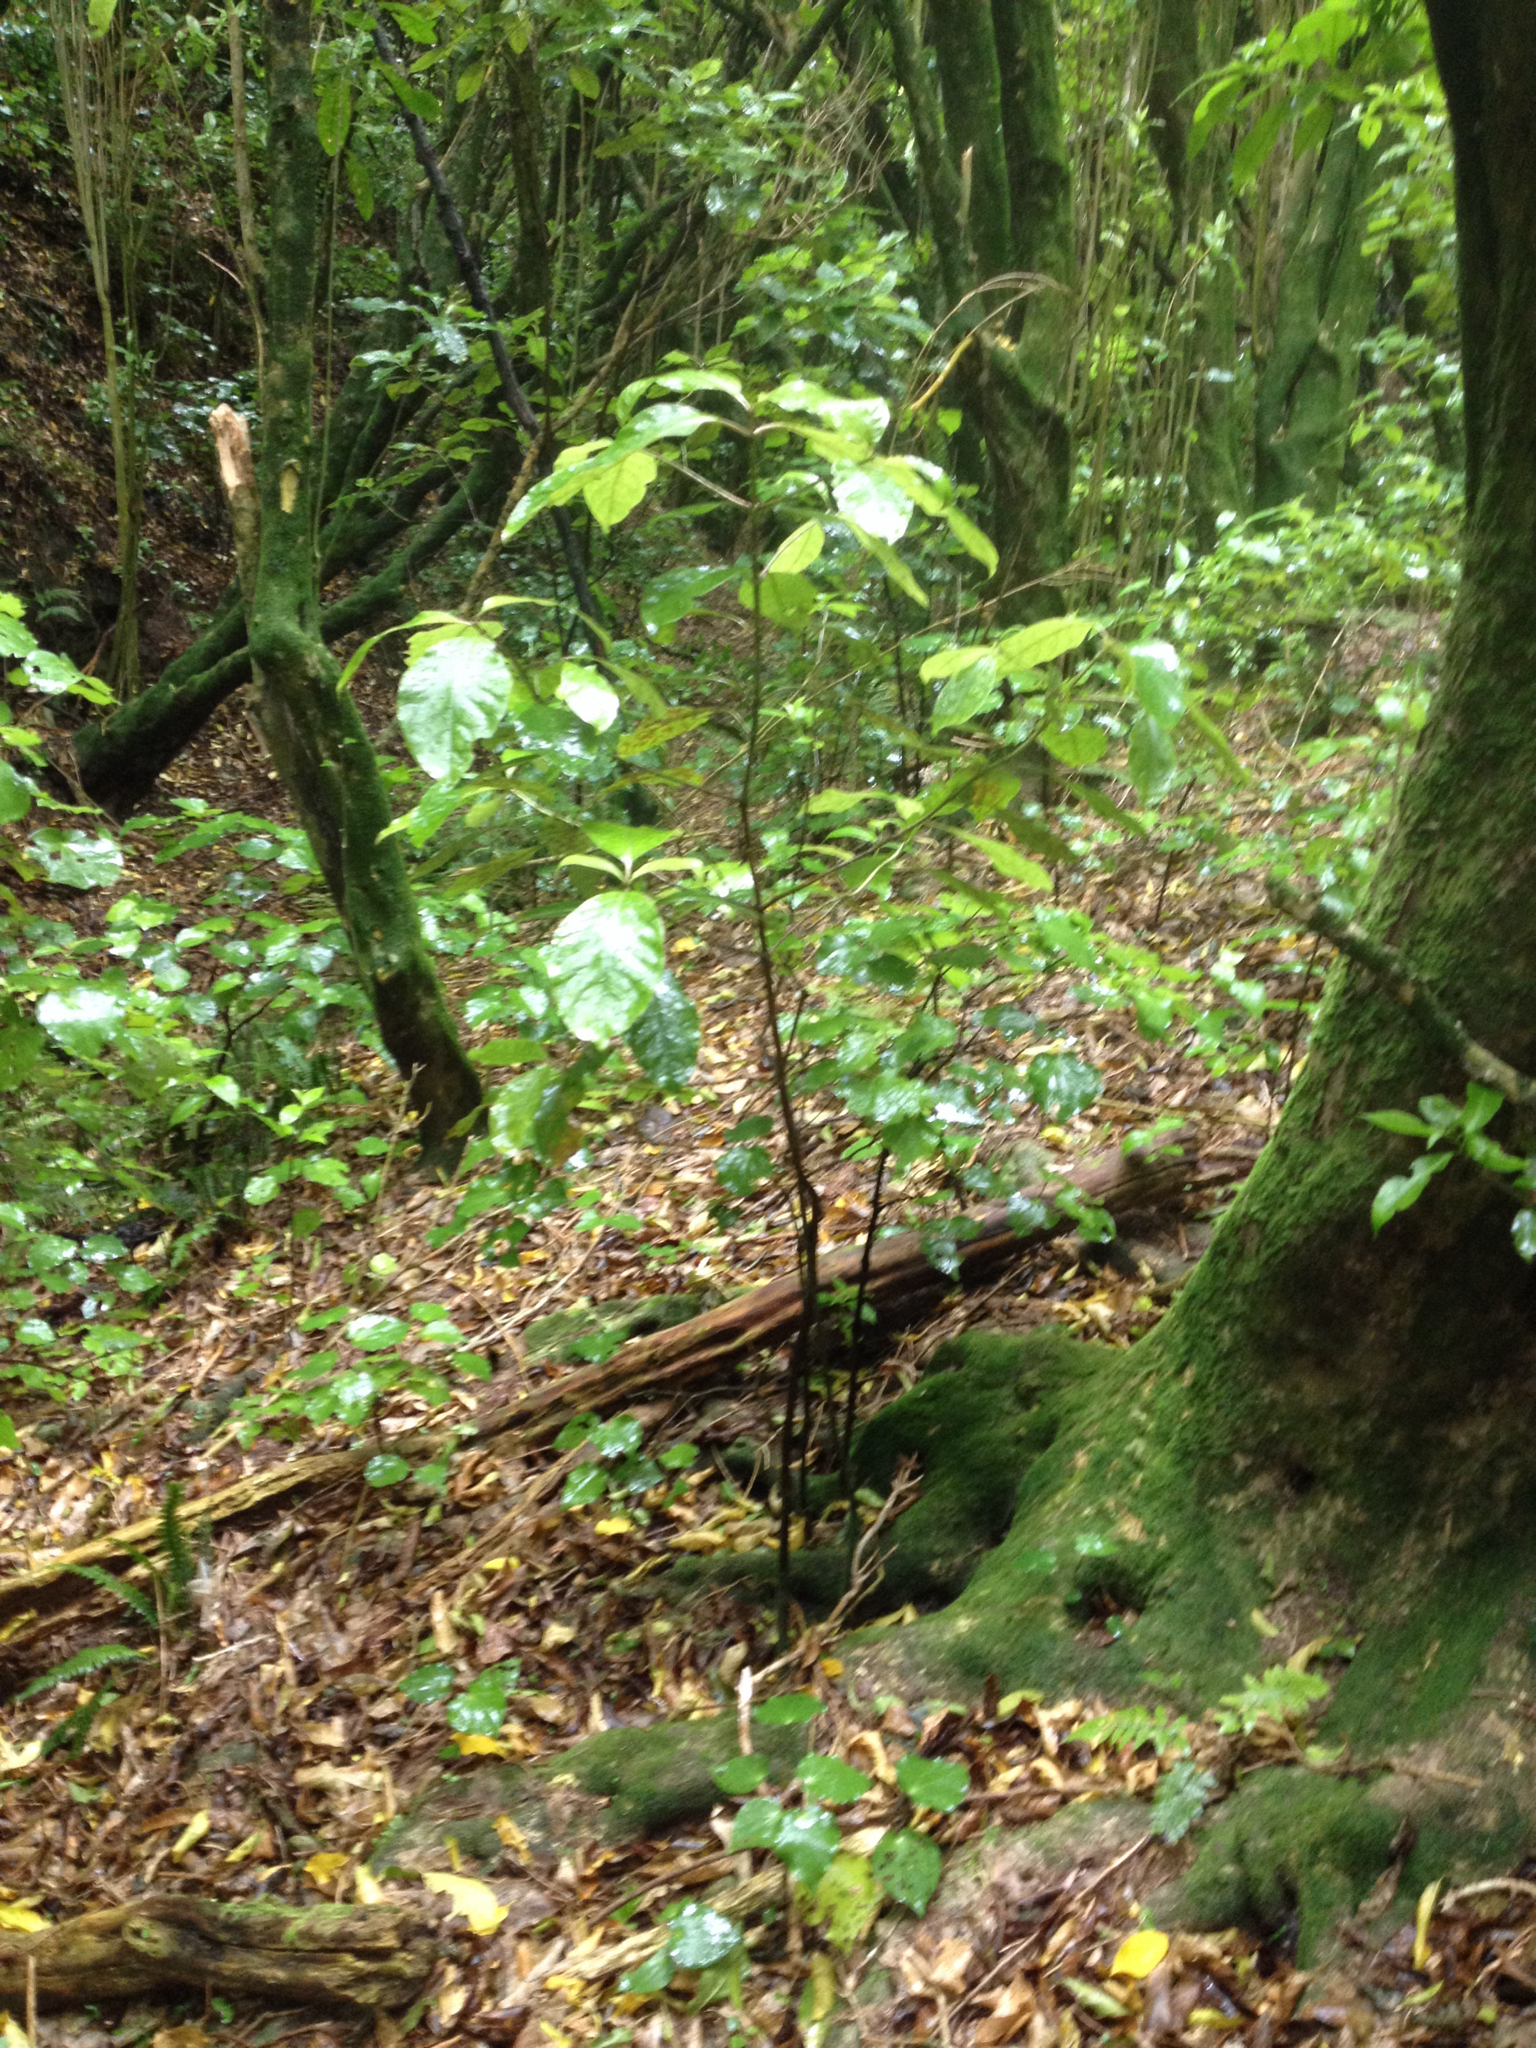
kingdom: Plantae
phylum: Tracheophyta
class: Magnoliopsida
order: Gentianales
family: Rubiaceae
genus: Coprosma
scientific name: Coprosma autumnalis
